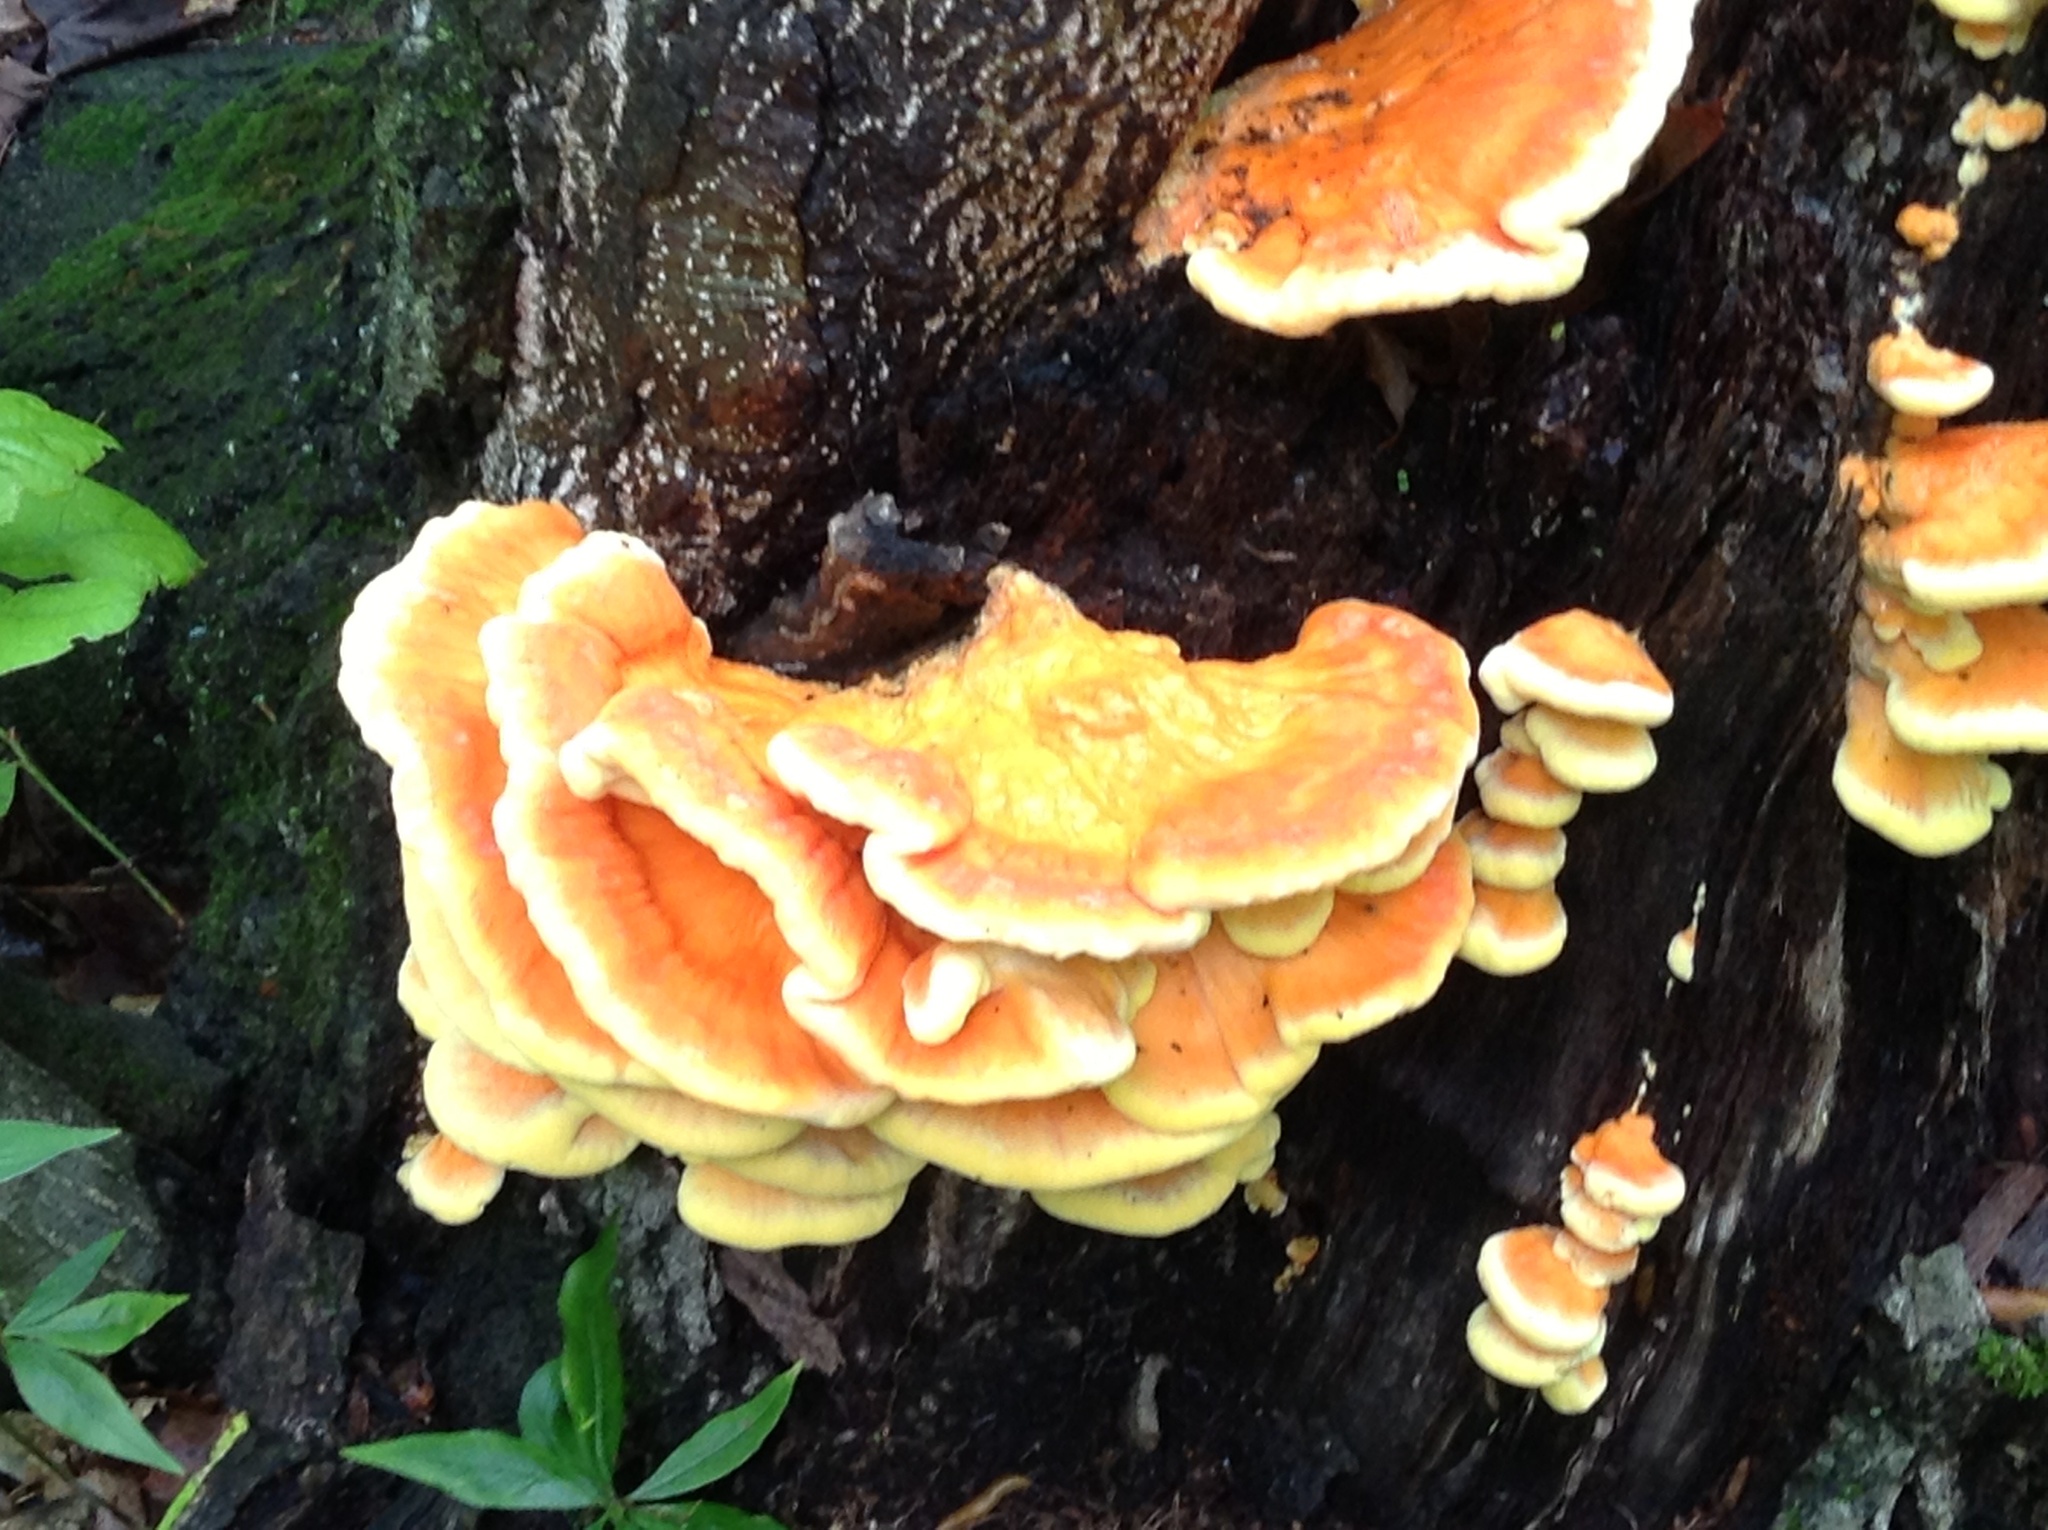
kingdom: Fungi
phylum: Basidiomycota
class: Agaricomycetes
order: Polyporales
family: Laetiporaceae
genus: Laetiporus
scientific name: Laetiporus sulphureus
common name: Chicken of the woods
